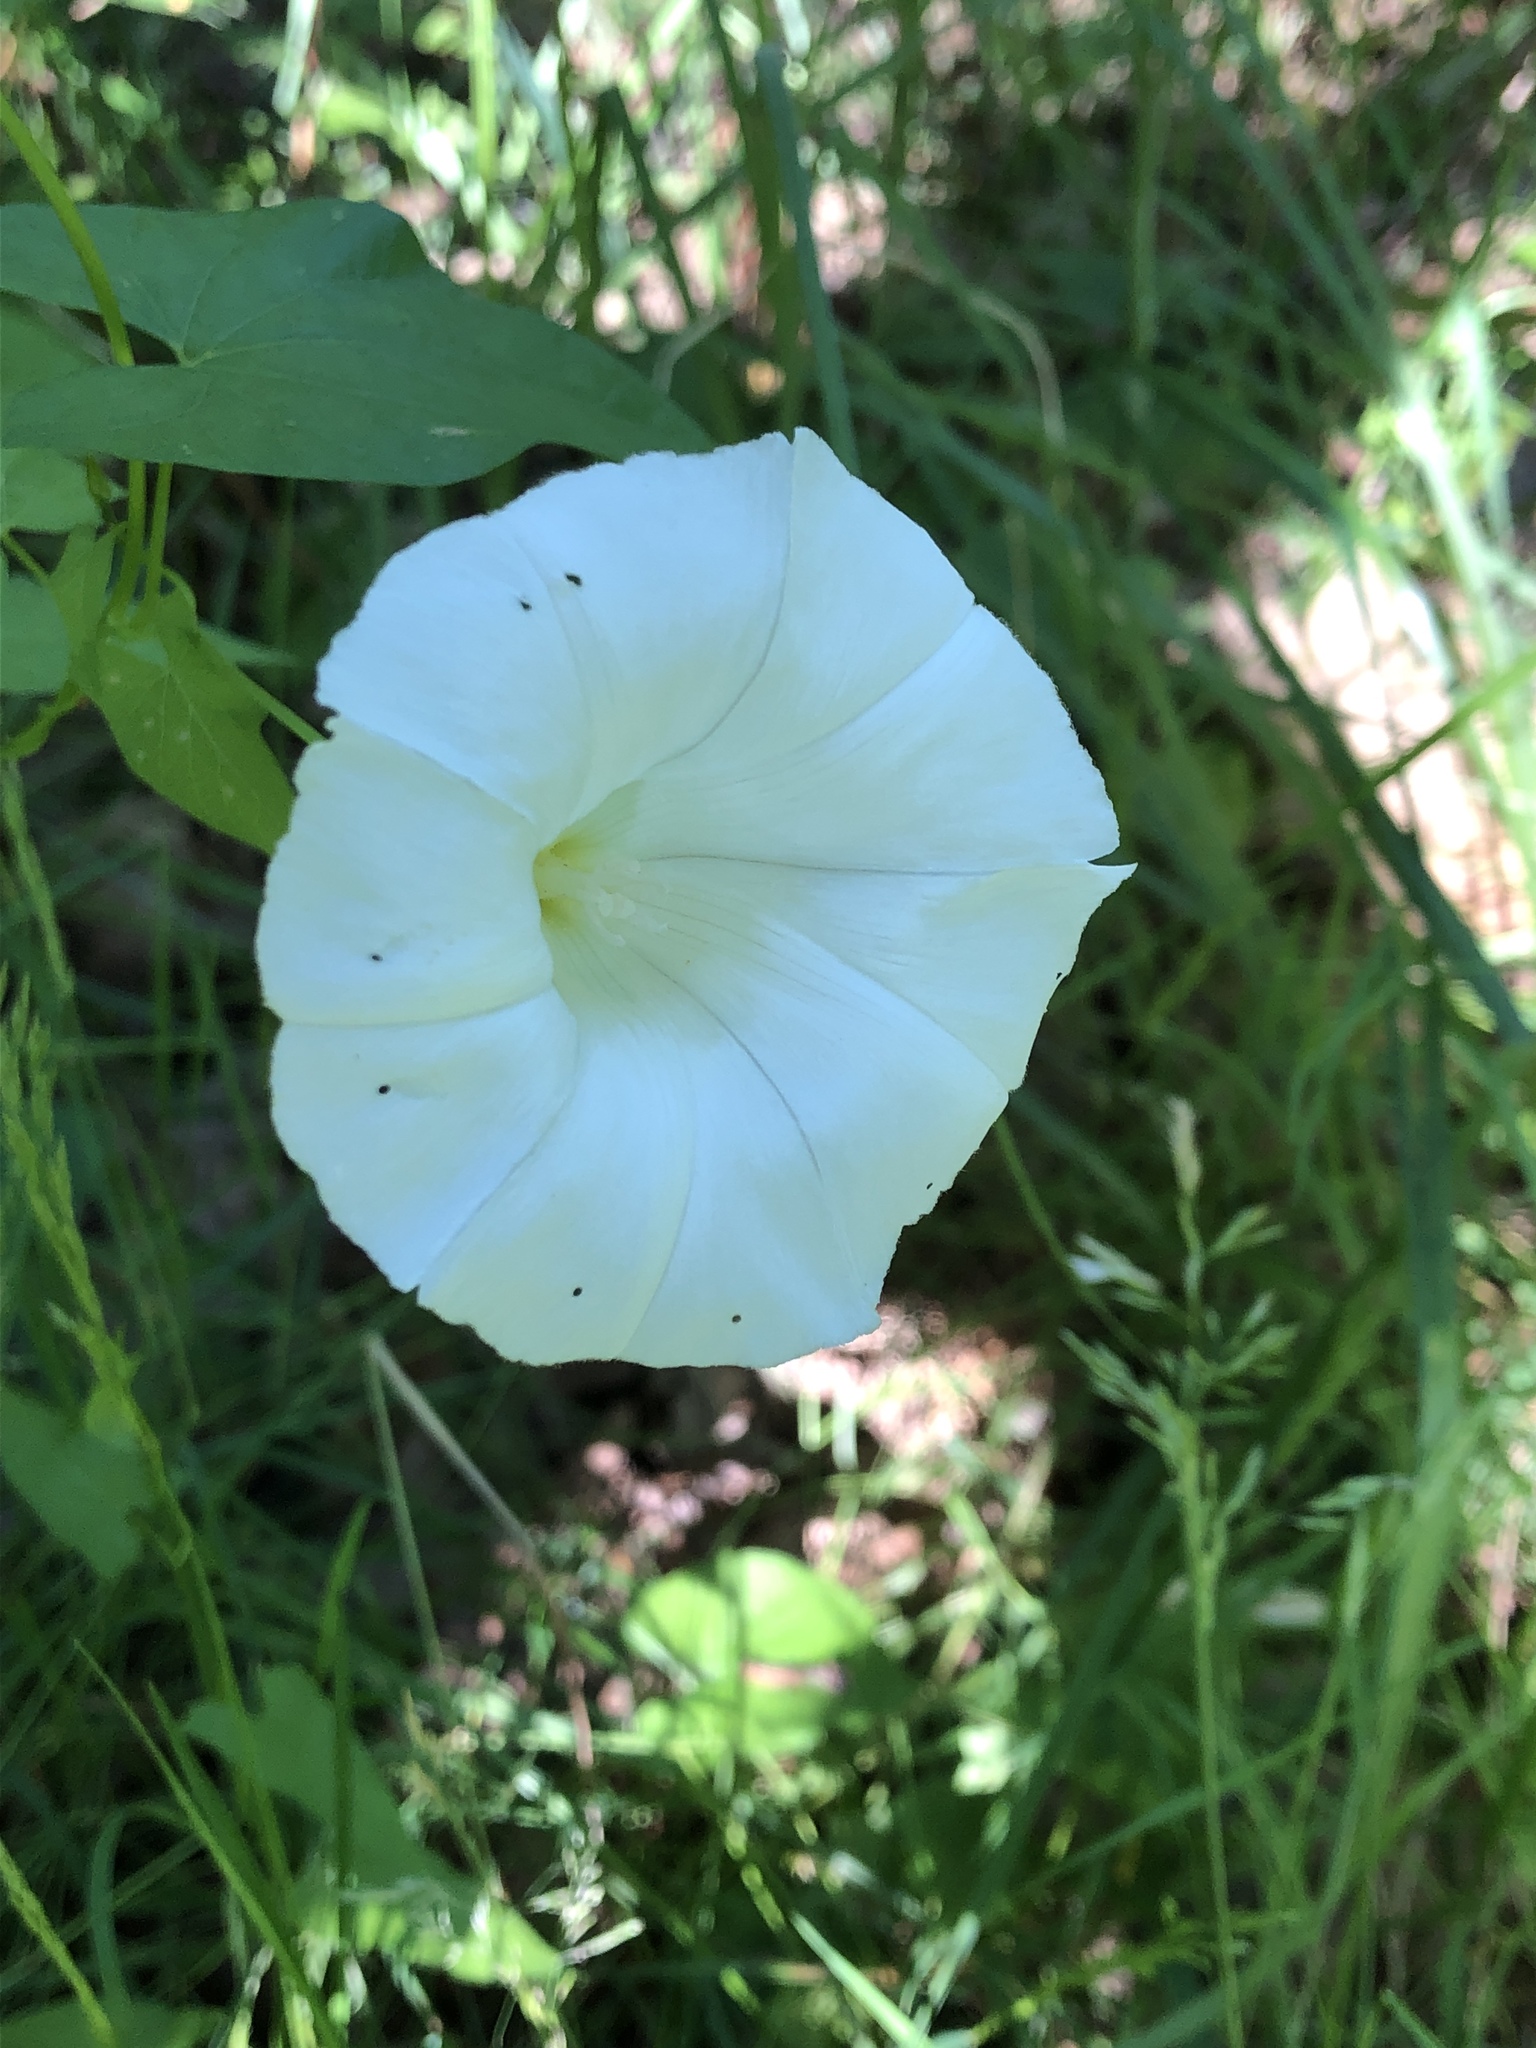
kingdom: Plantae
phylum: Tracheophyta
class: Magnoliopsida
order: Solanales
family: Convolvulaceae
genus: Calystegia
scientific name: Calystegia sepium
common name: Hedge bindweed
